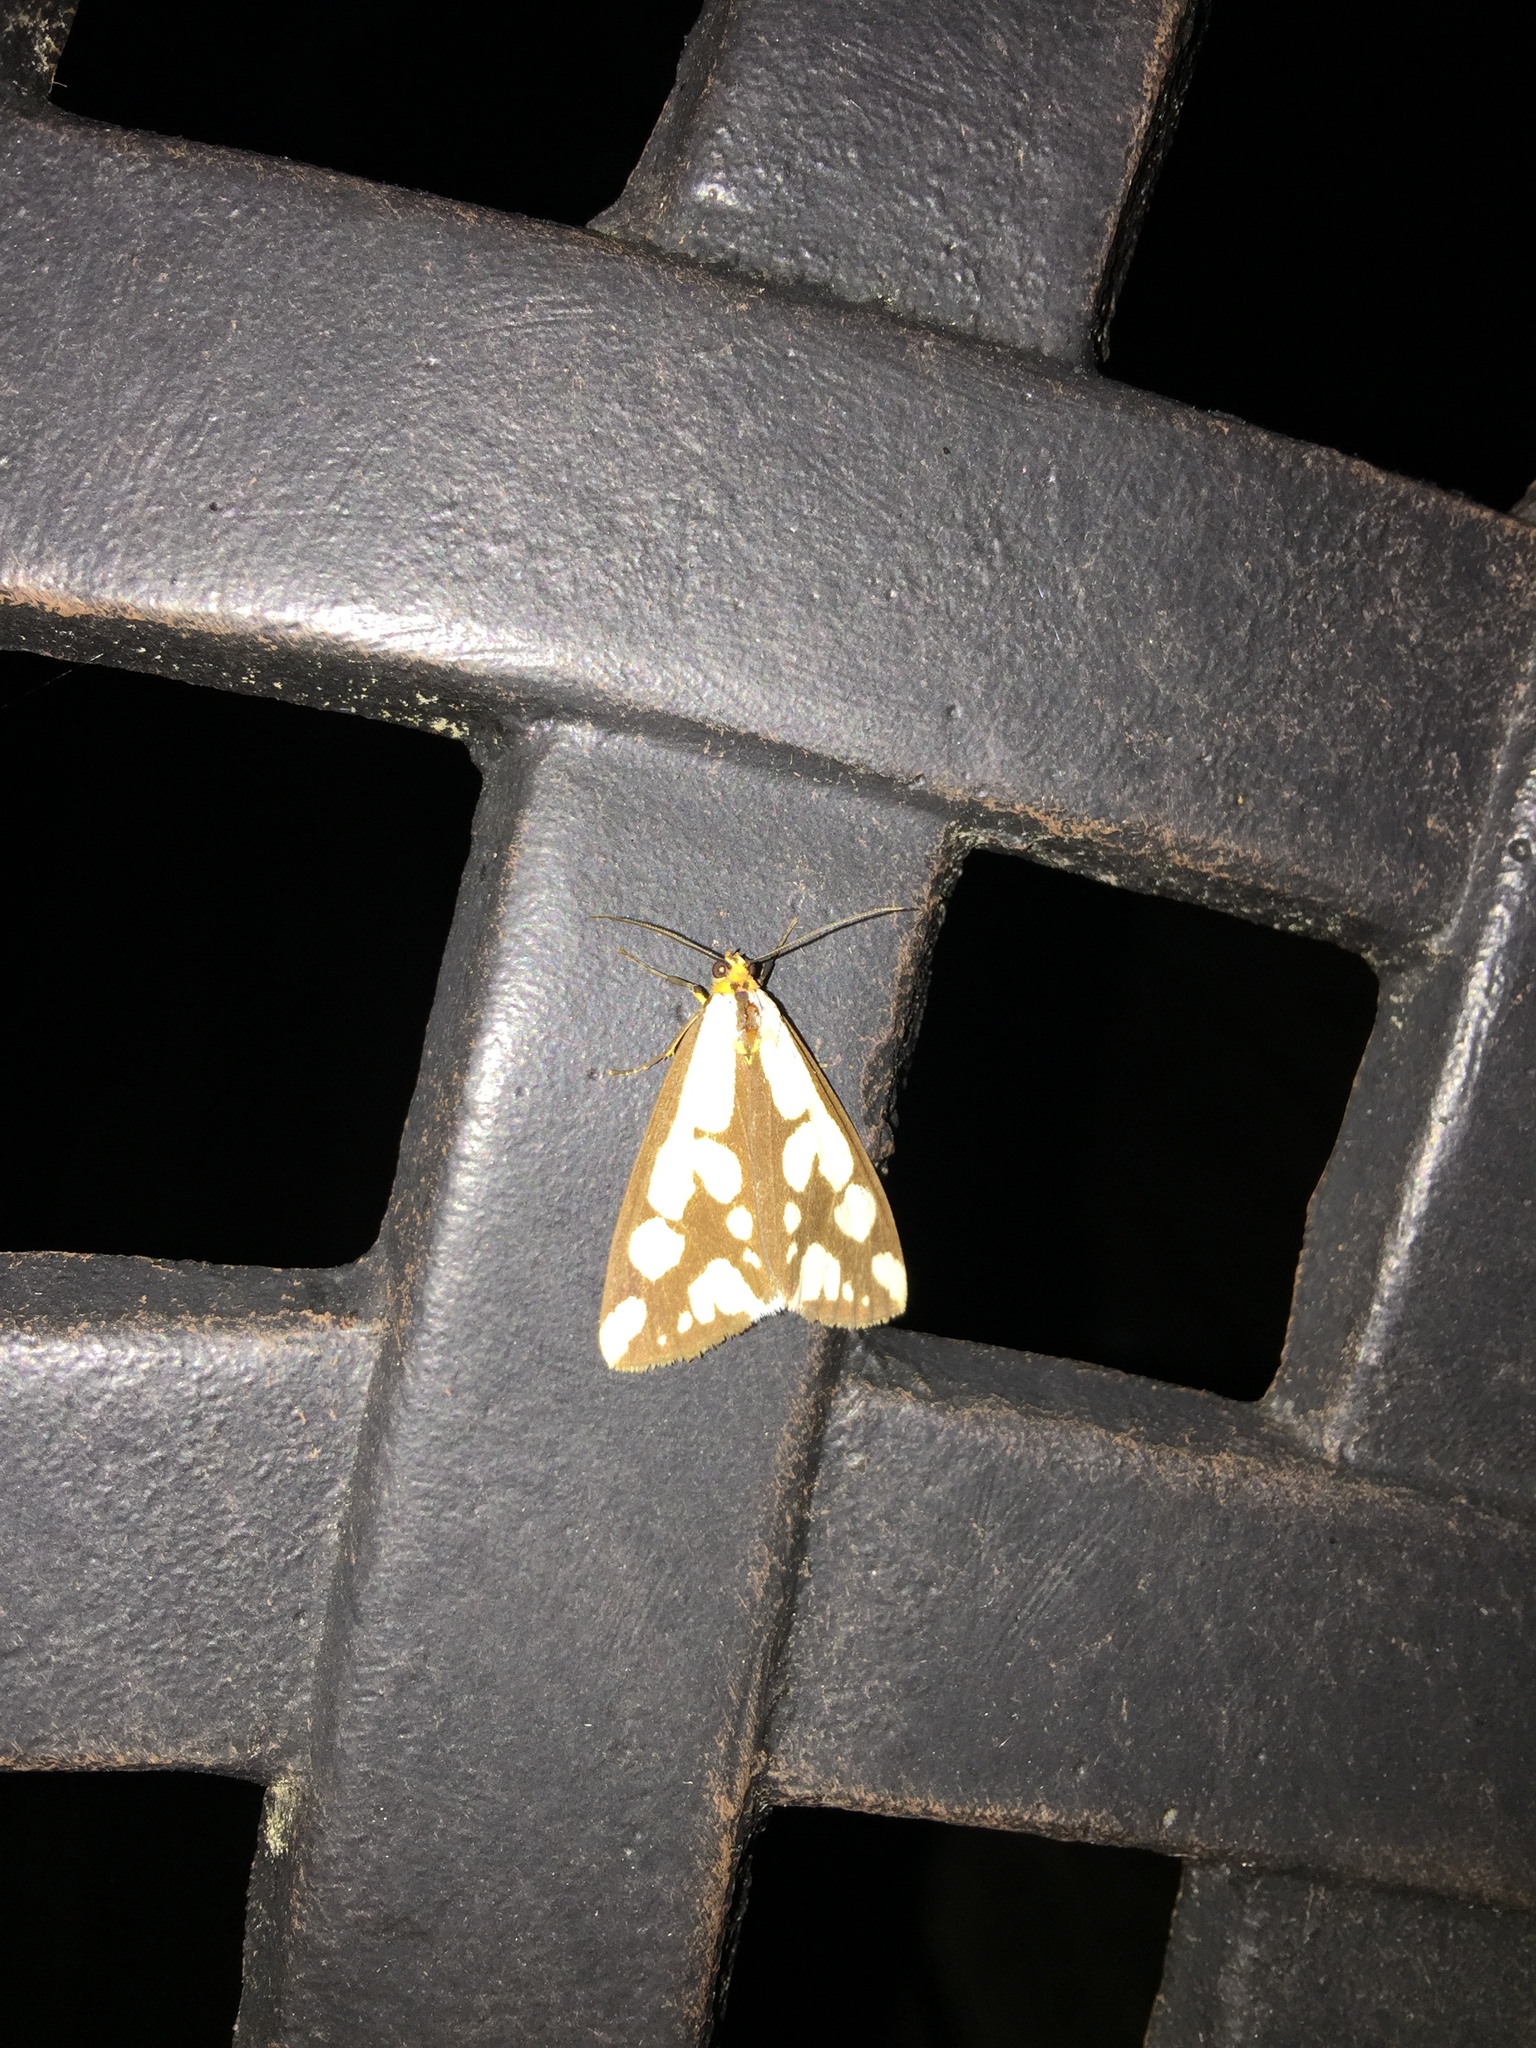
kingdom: Animalia
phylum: Arthropoda
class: Insecta
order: Lepidoptera
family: Erebidae
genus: Haploa
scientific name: Haploa confusa
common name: Confused haploa moth
